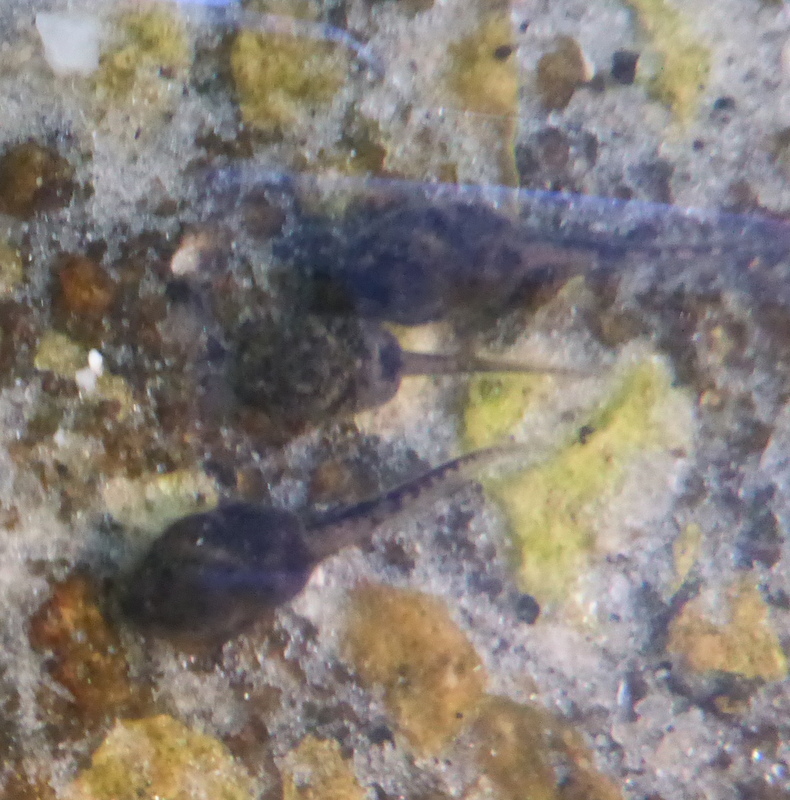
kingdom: Animalia
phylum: Chordata
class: Amphibia
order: Anura
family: Bufonidae
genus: Anaxyrus
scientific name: Anaxyrus terrestris
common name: Southern toad
